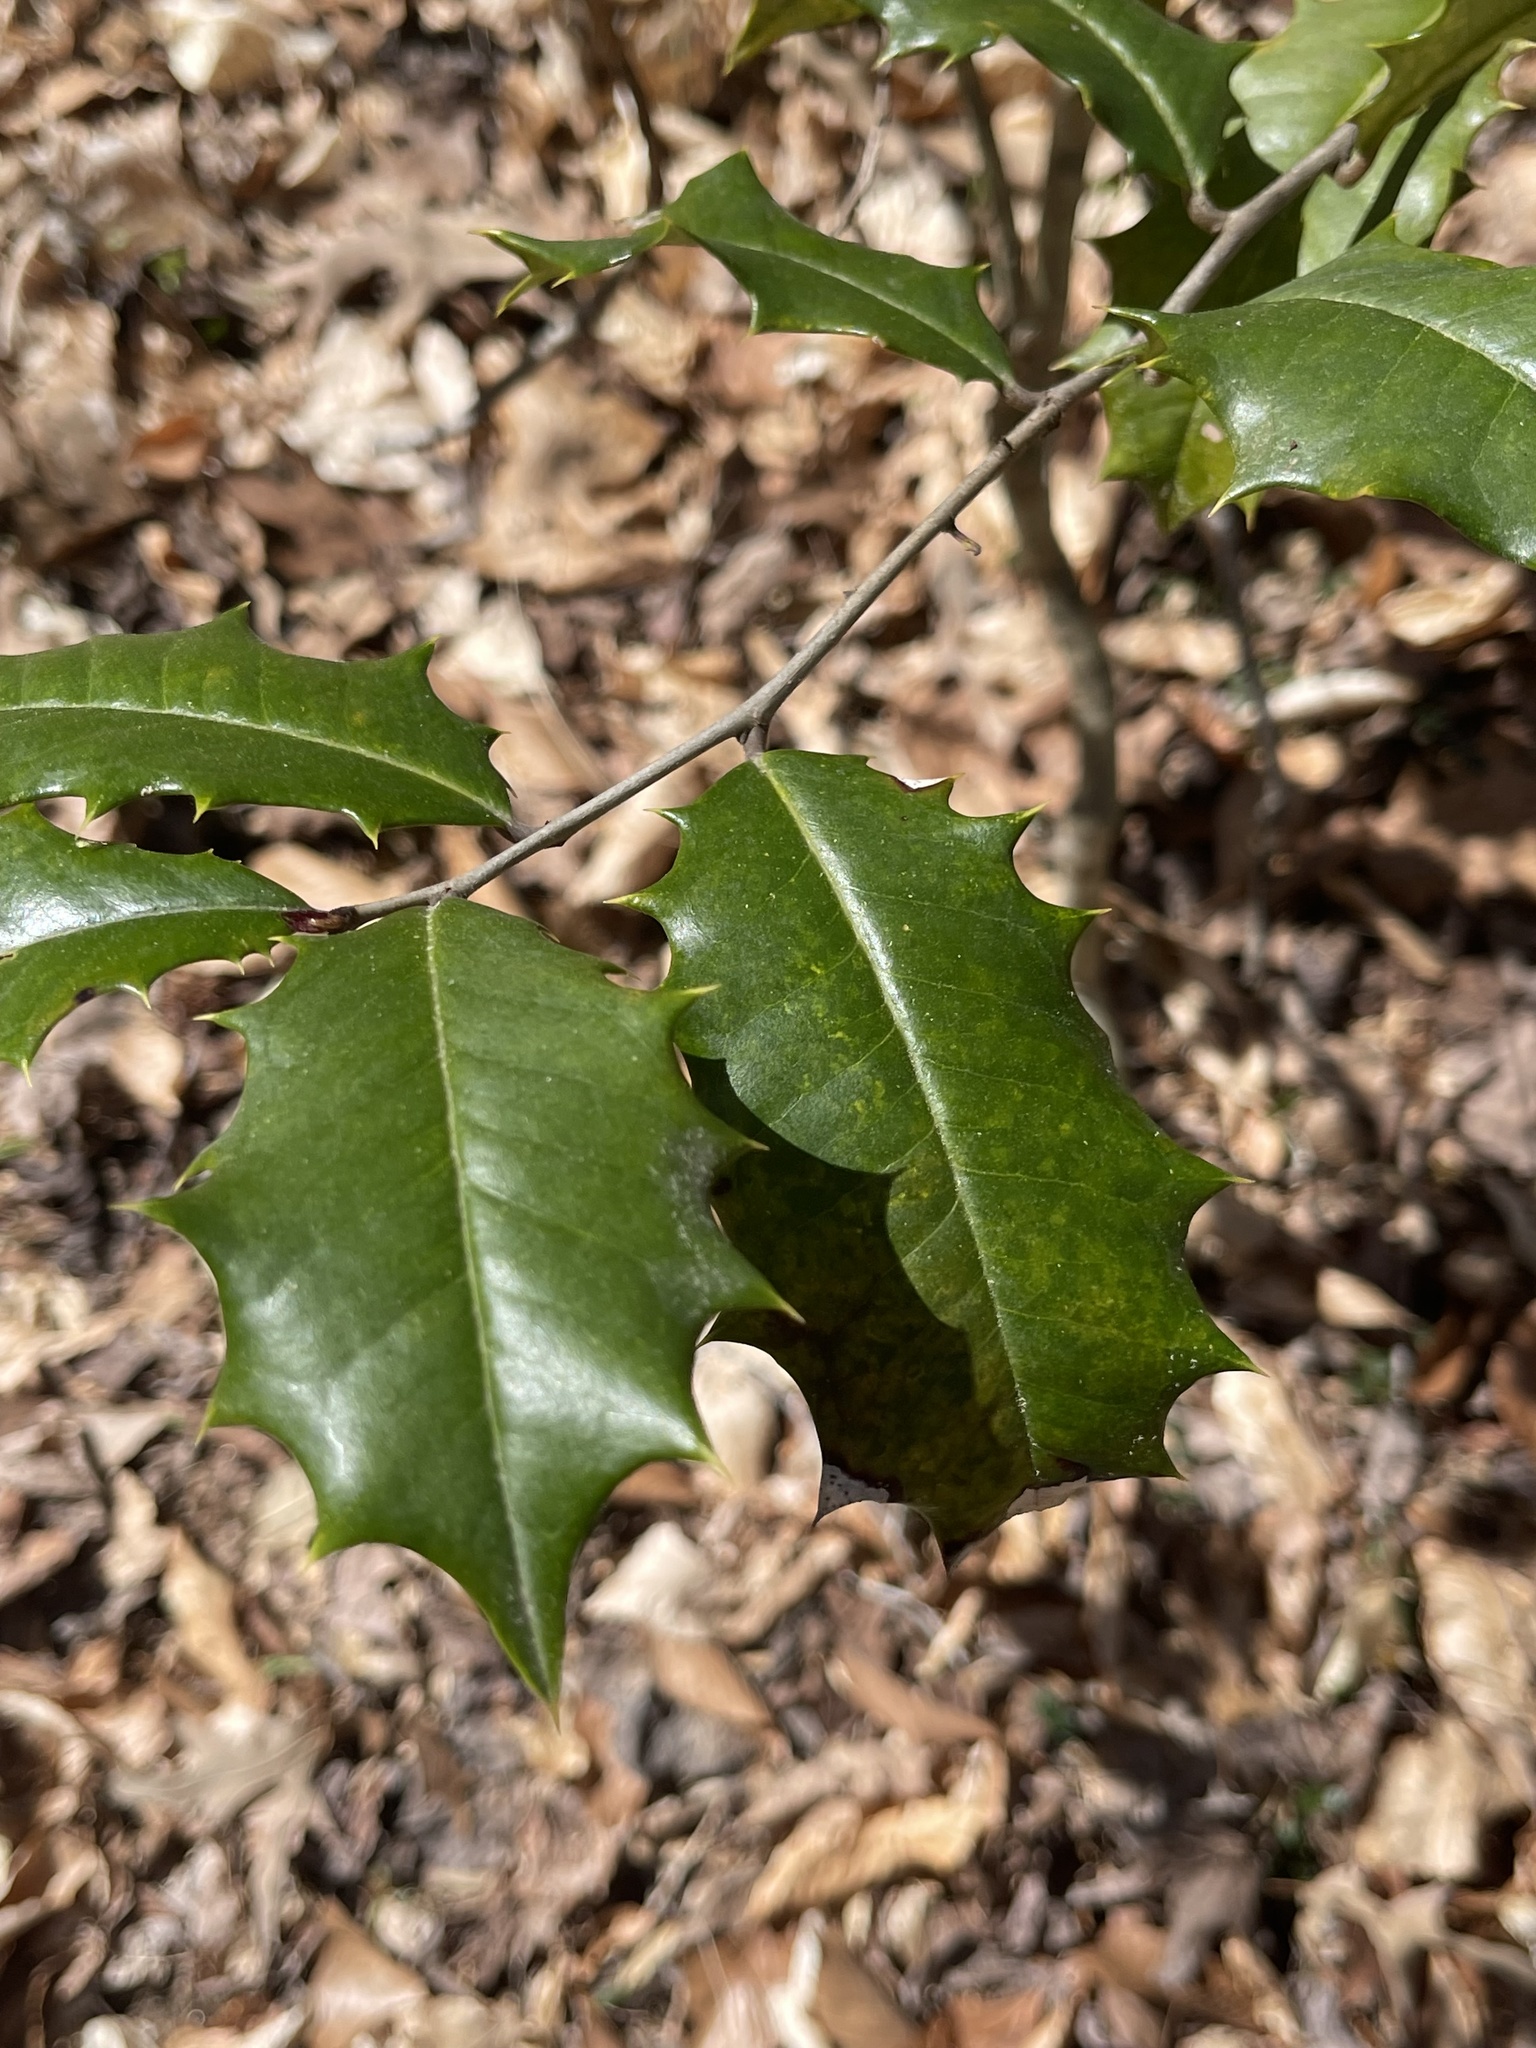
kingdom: Plantae
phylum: Tracheophyta
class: Magnoliopsida
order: Aquifoliales
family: Aquifoliaceae
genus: Ilex
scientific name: Ilex opaca
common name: American holly
